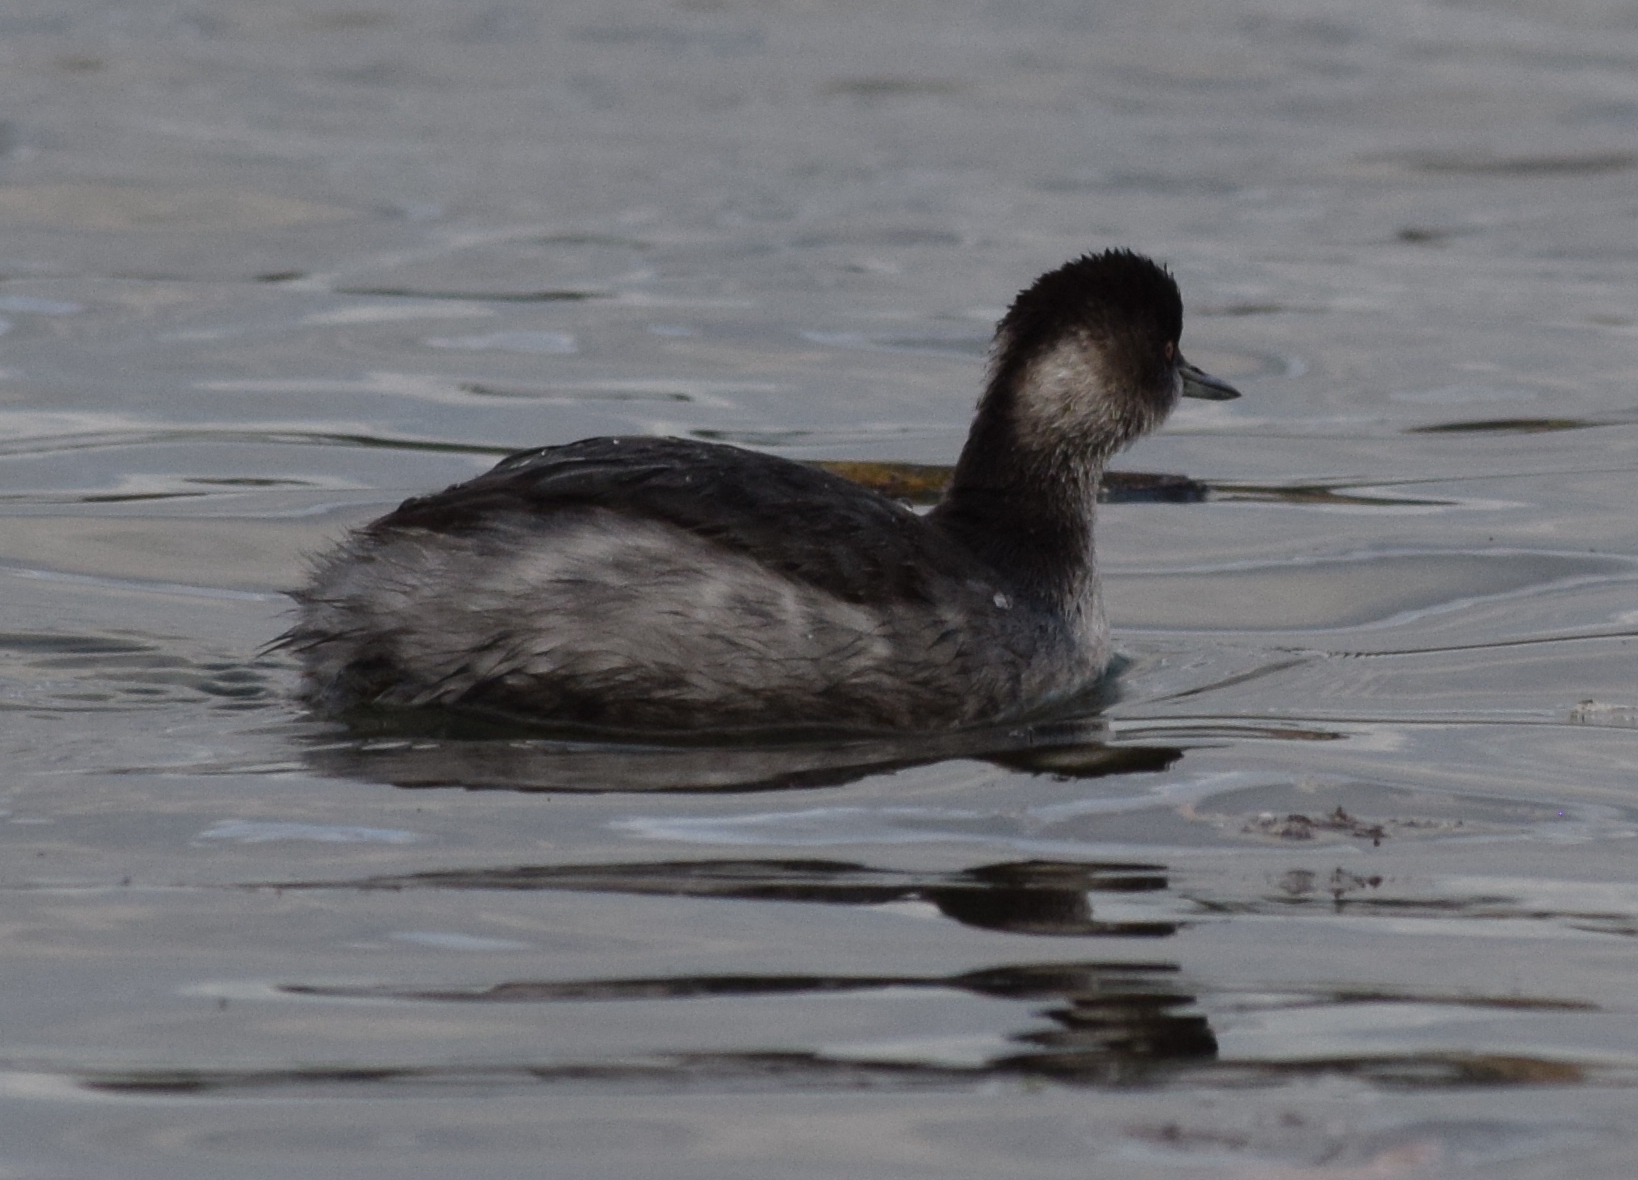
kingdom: Animalia
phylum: Chordata
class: Aves
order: Podicipediformes
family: Podicipedidae
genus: Podiceps
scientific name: Podiceps nigricollis
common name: Black-necked grebe
